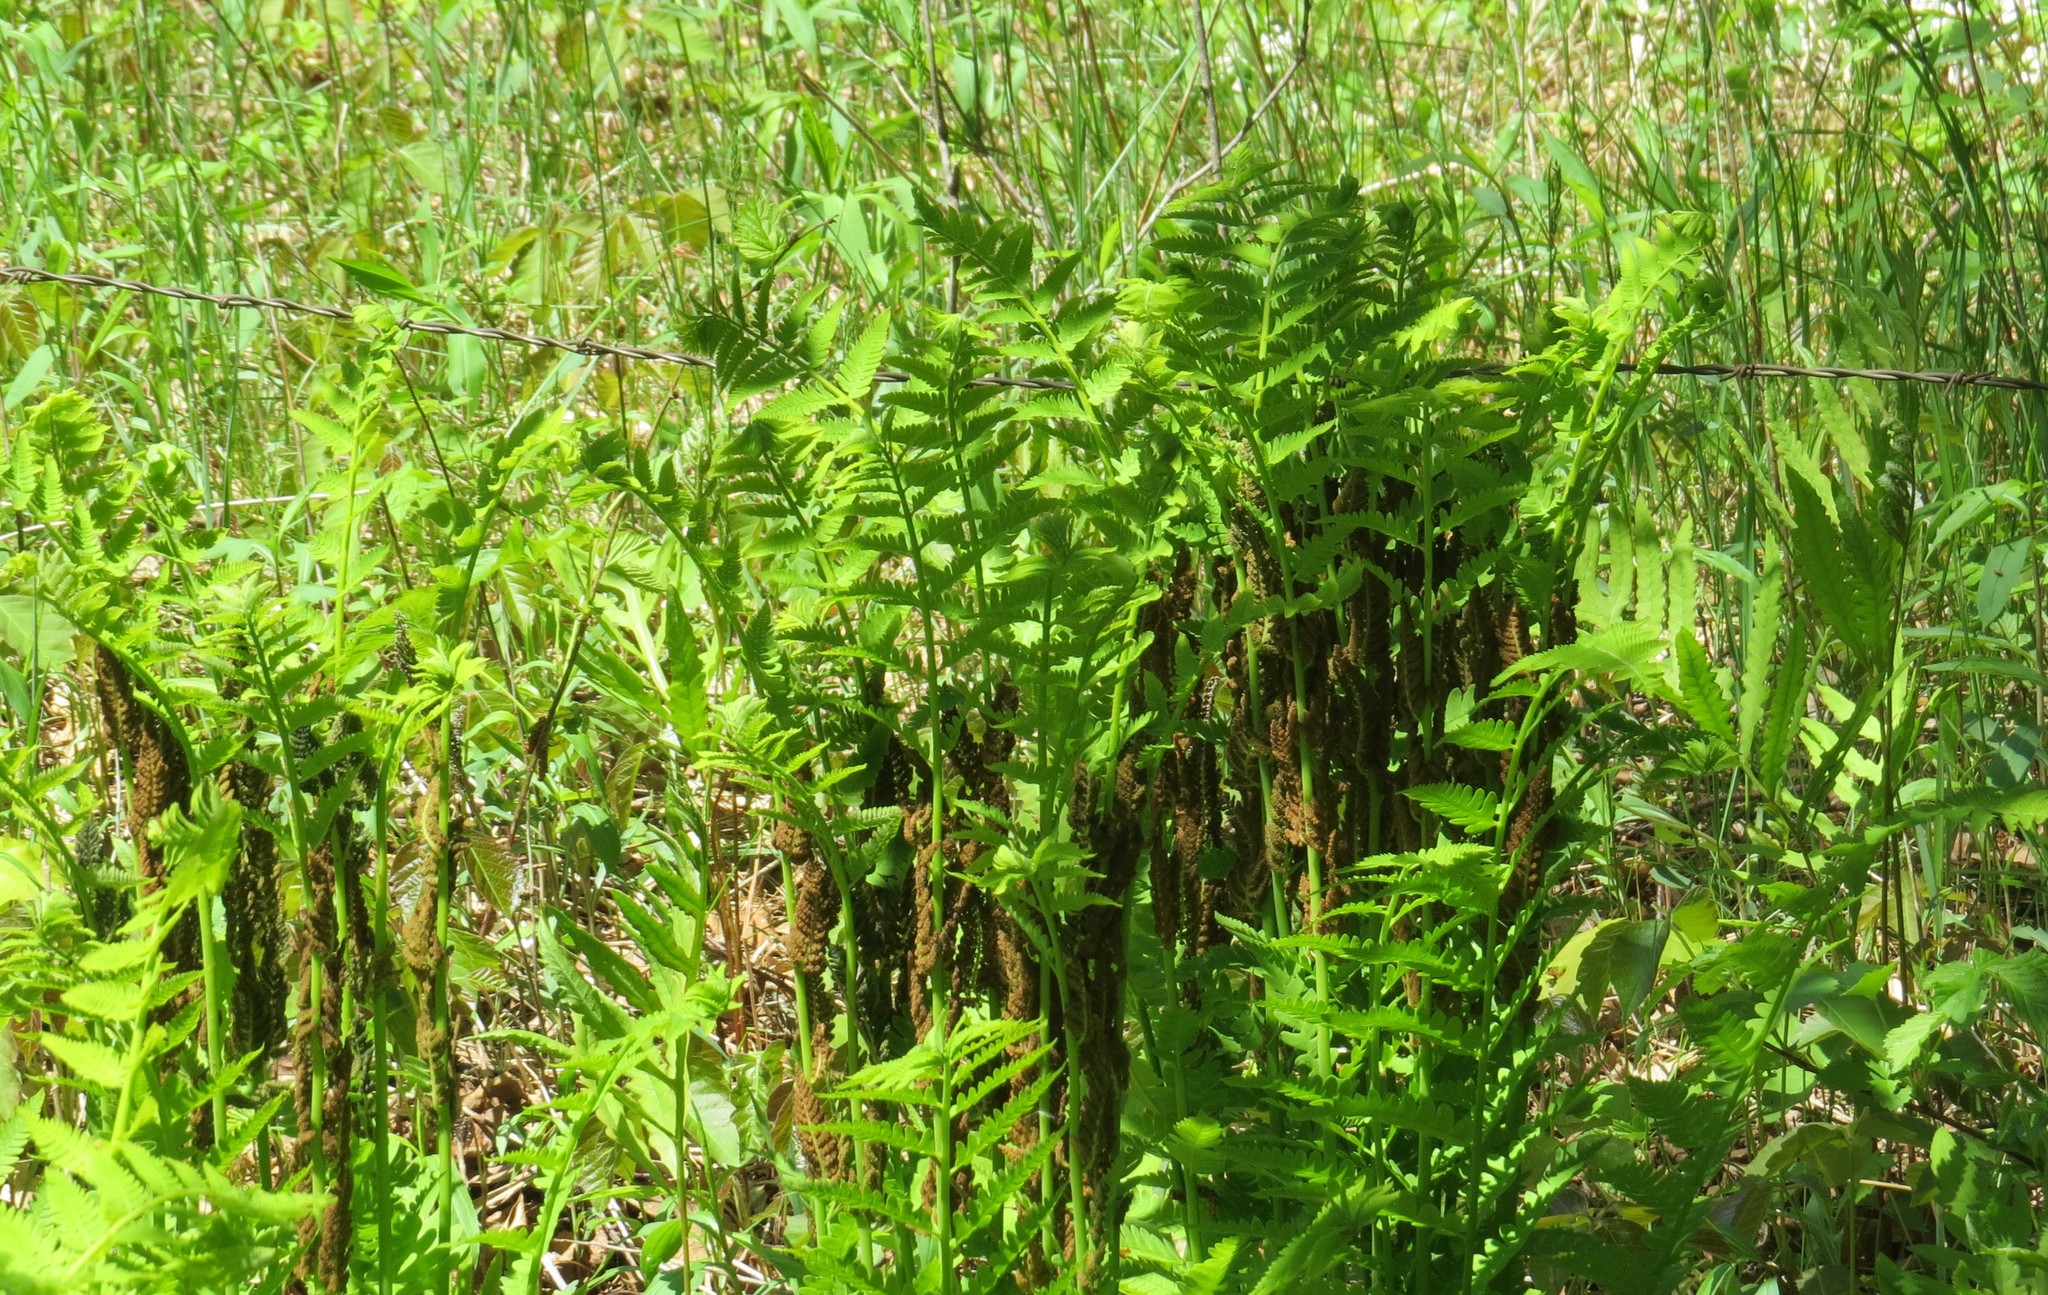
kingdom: Plantae
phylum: Tracheophyta
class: Polypodiopsida
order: Osmundales
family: Osmundaceae
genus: Claytosmunda
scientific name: Claytosmunda claytoniana
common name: Clayton's fern
